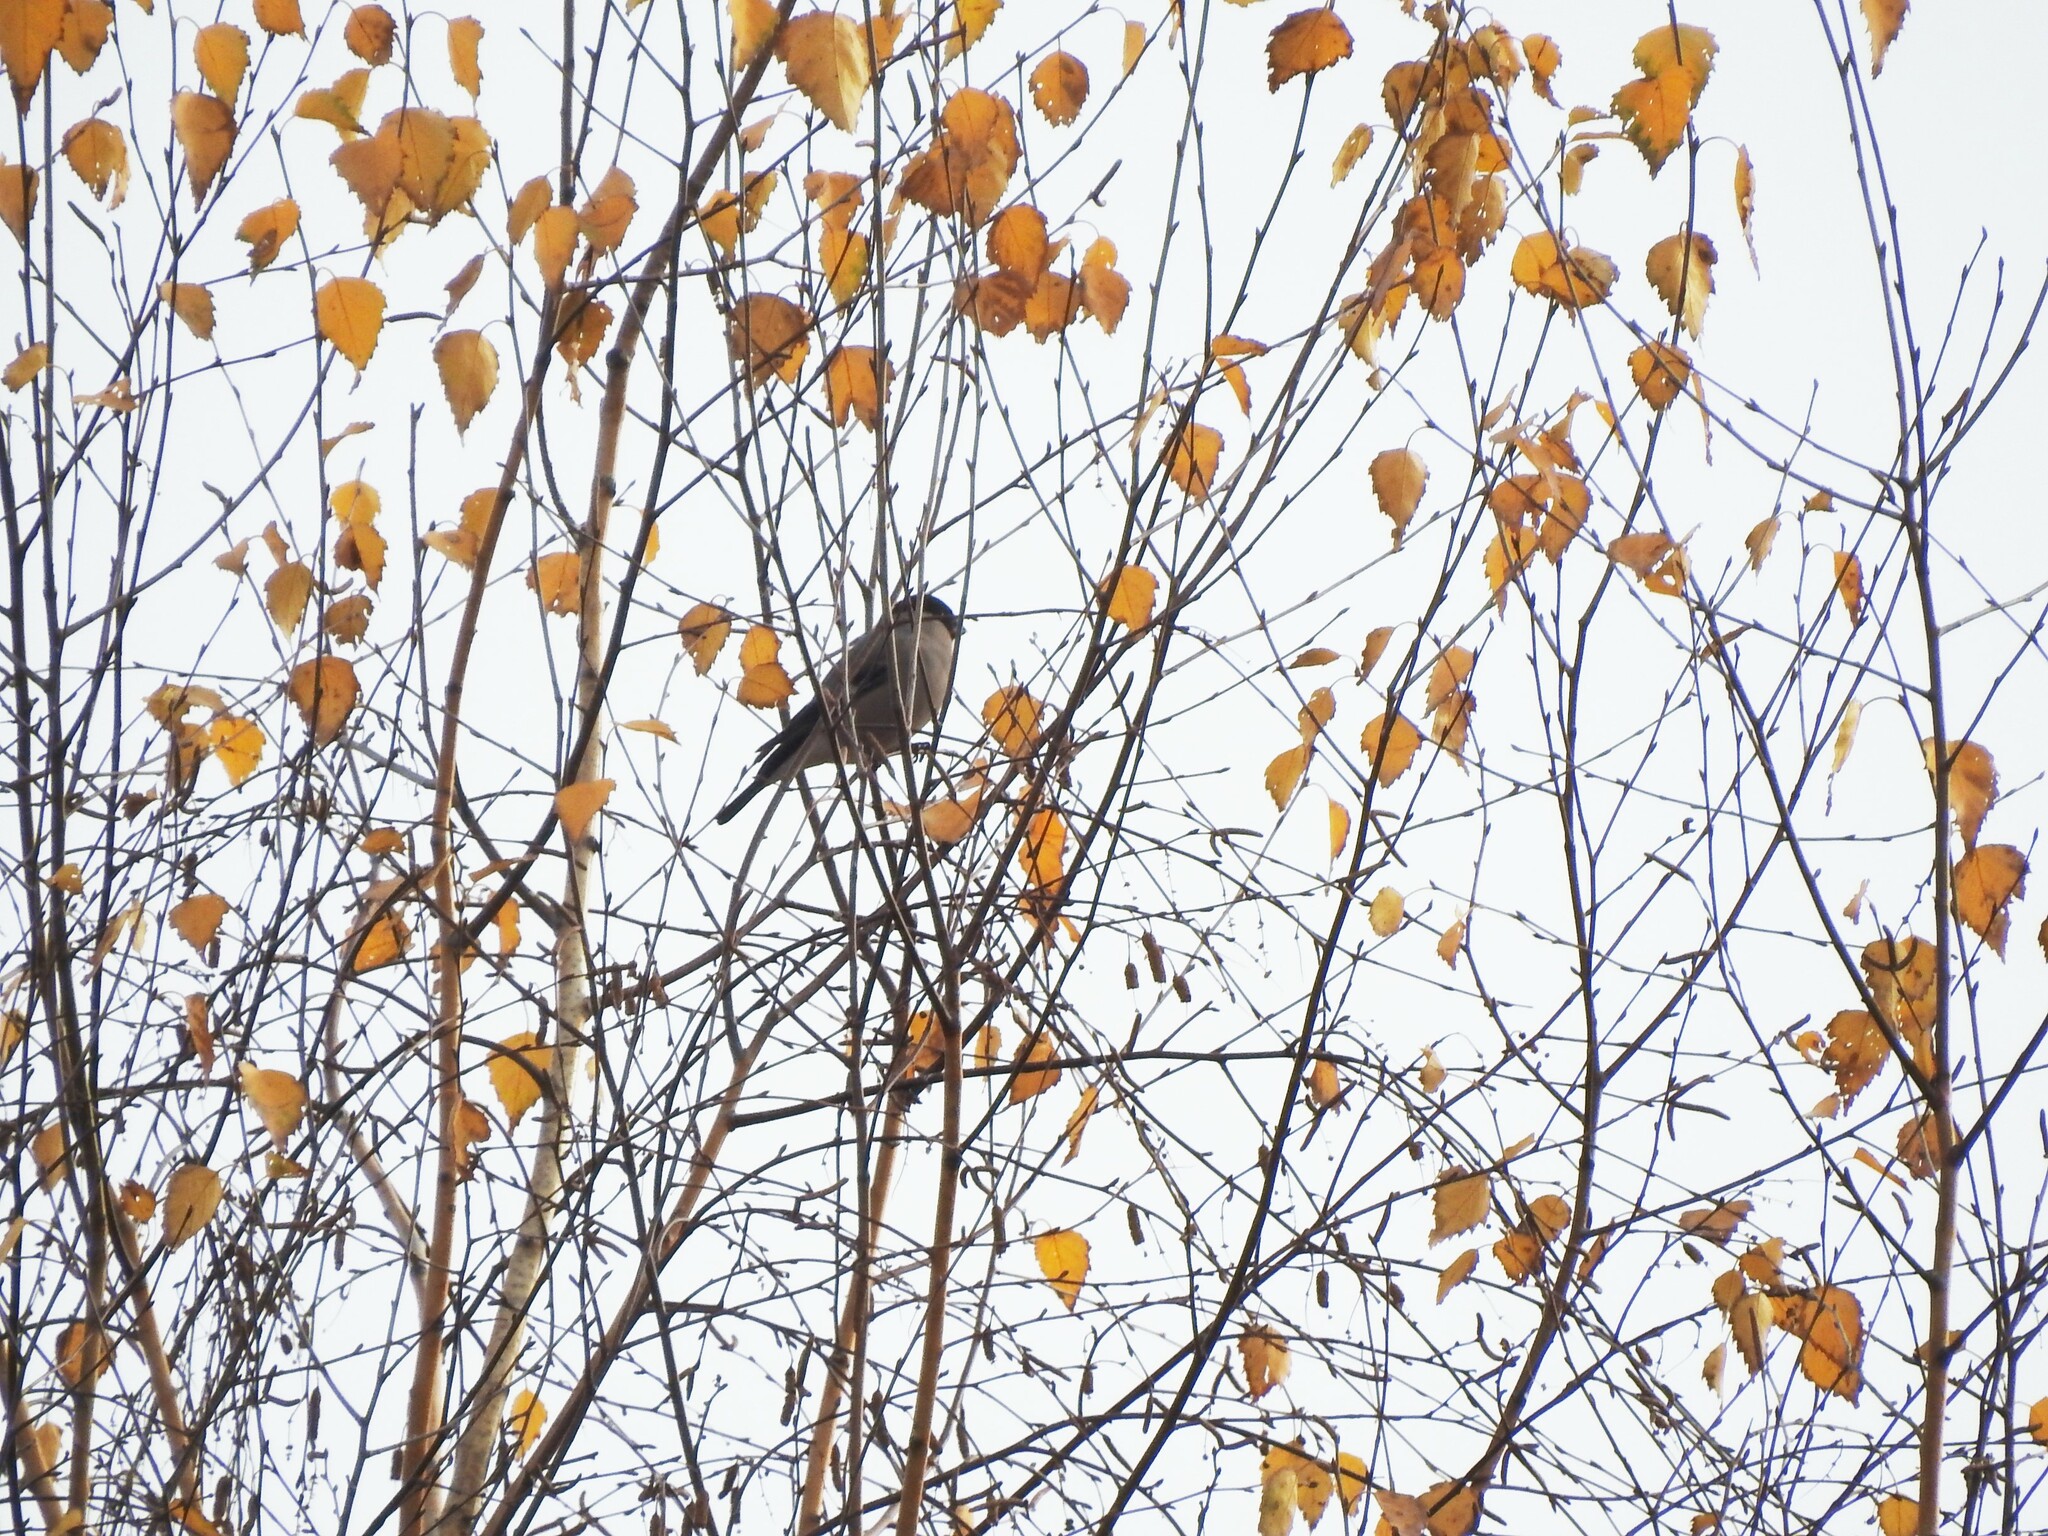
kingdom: Animalia
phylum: Chordata
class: Aves
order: Passeriformes
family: Fringillidae
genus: Pyrrhula
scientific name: Pyrrhula pyrrhula
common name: Eurasian bullfinch
